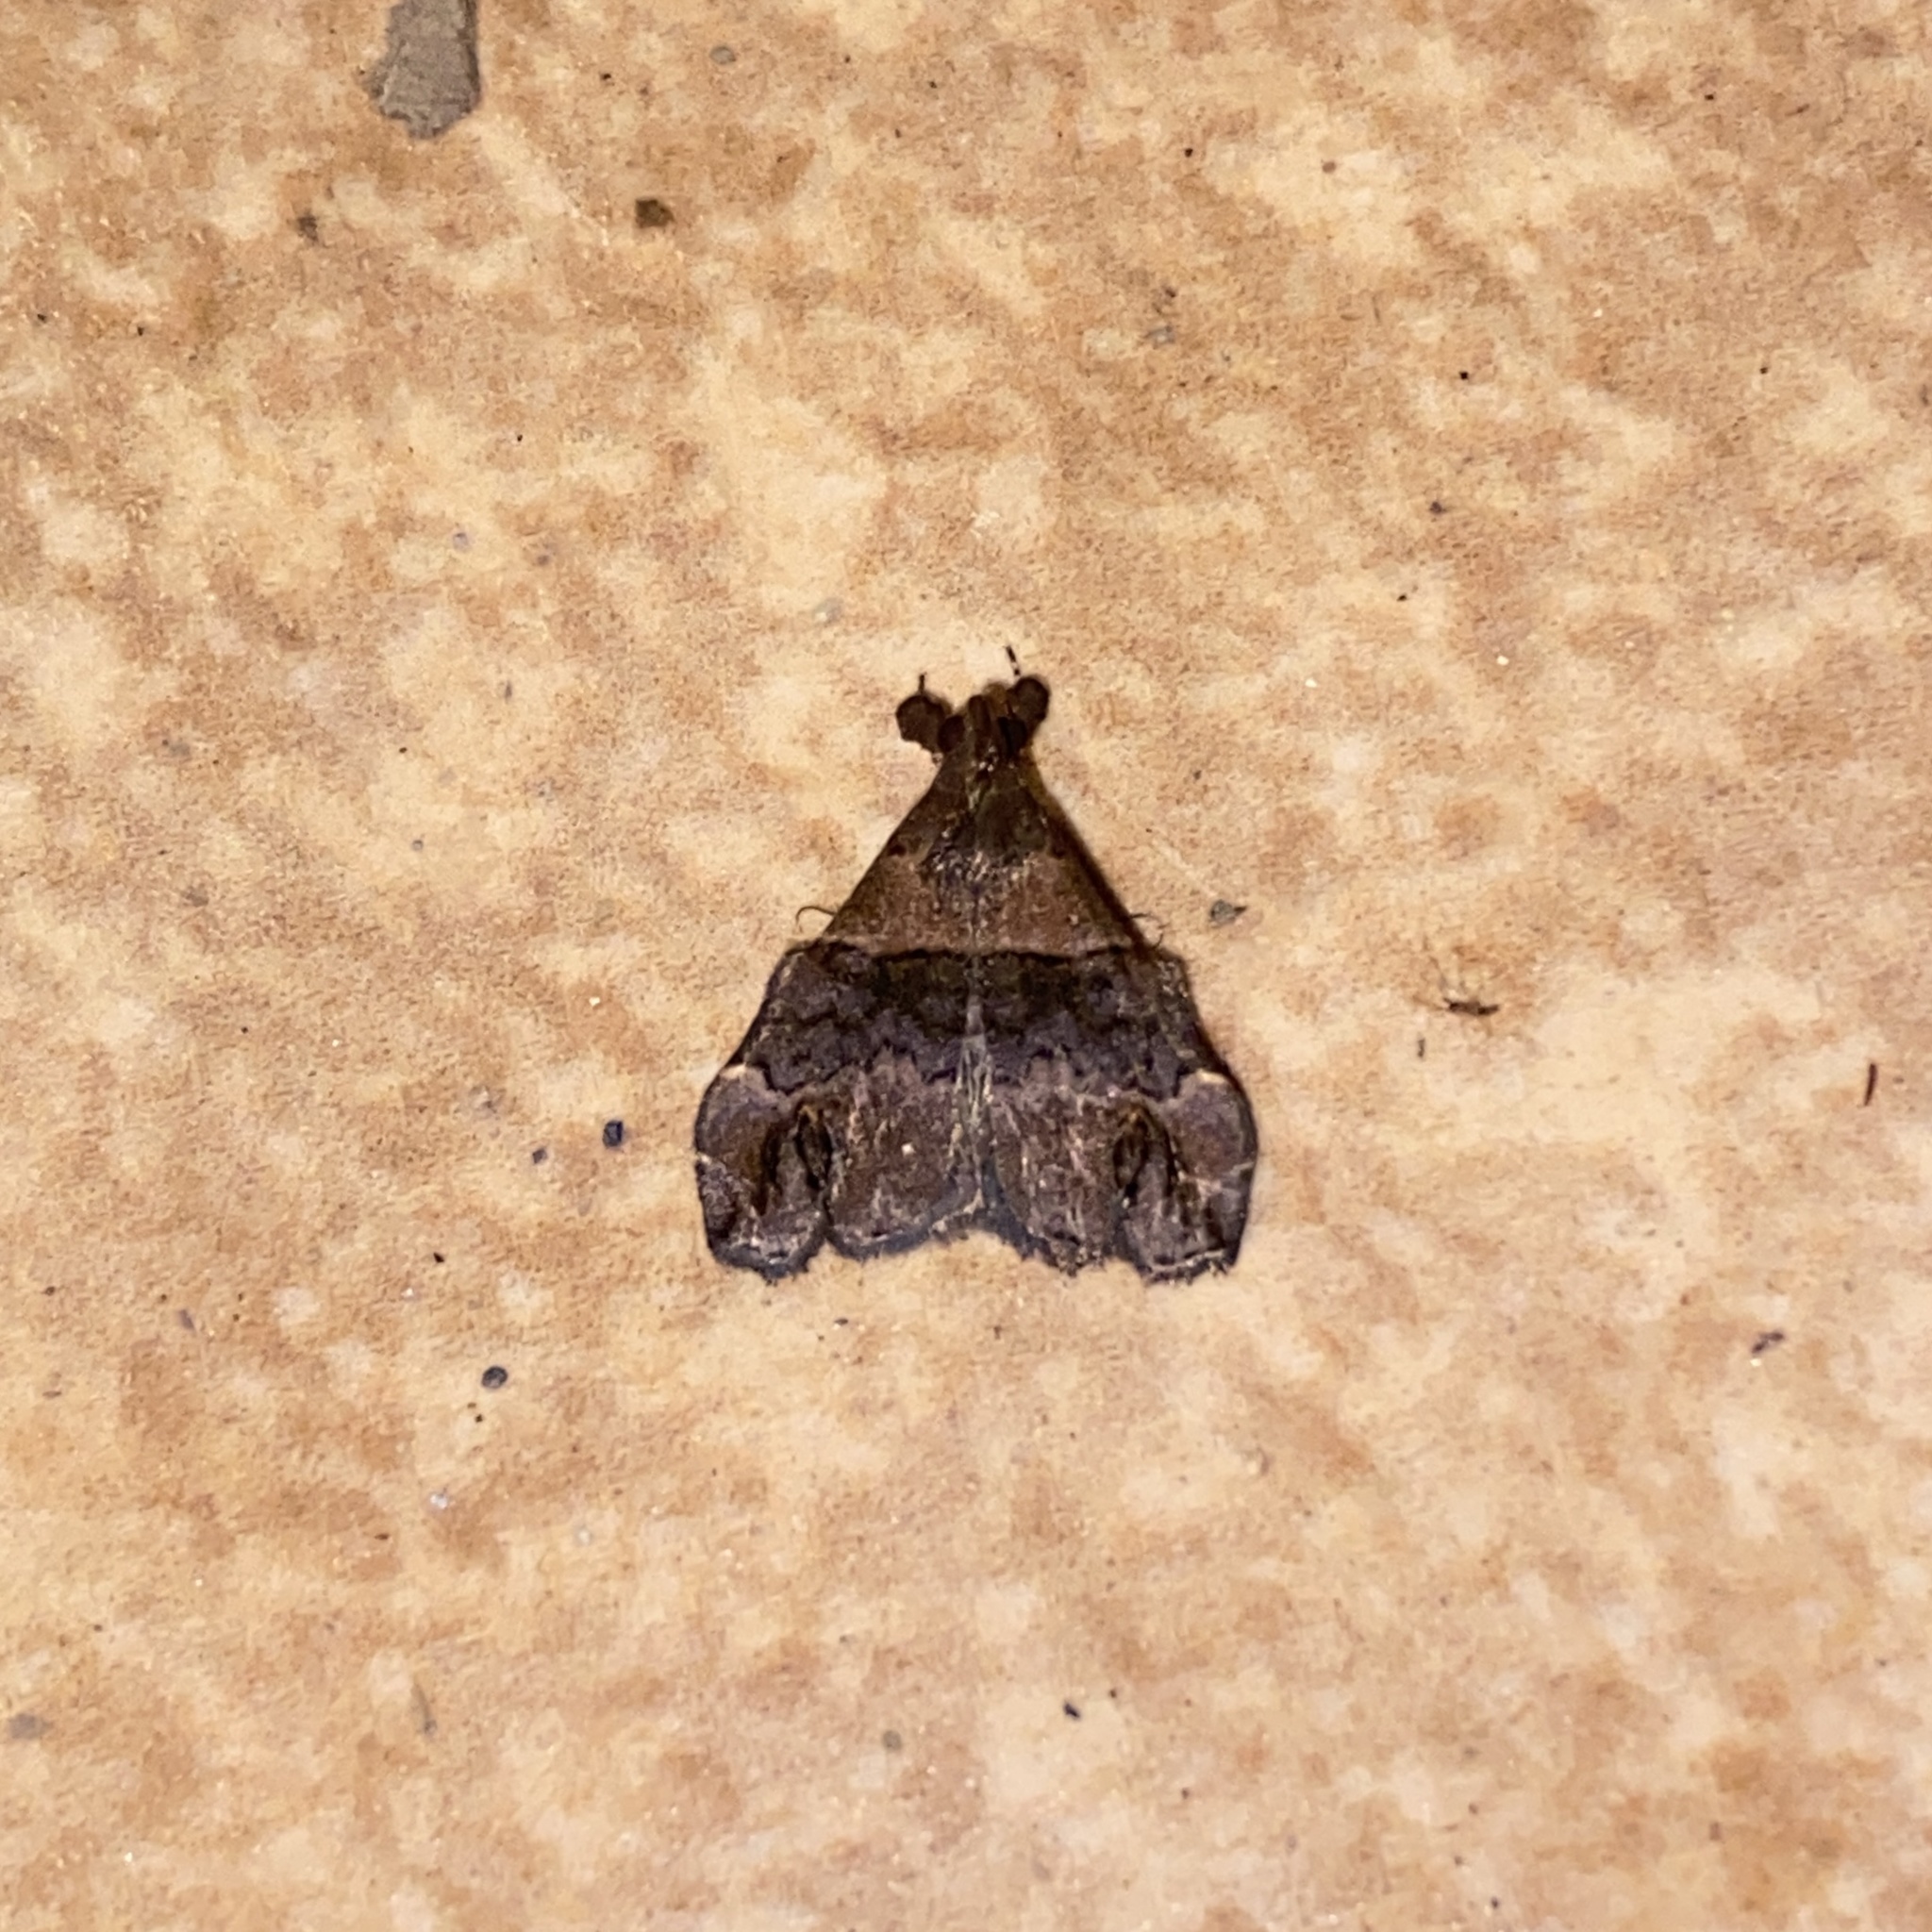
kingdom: Animalia
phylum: Arthropoda
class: Insecta
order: Lepidoptera
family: Erebidae
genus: Epitomiptera
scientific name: Epitomiptera purpurascens
